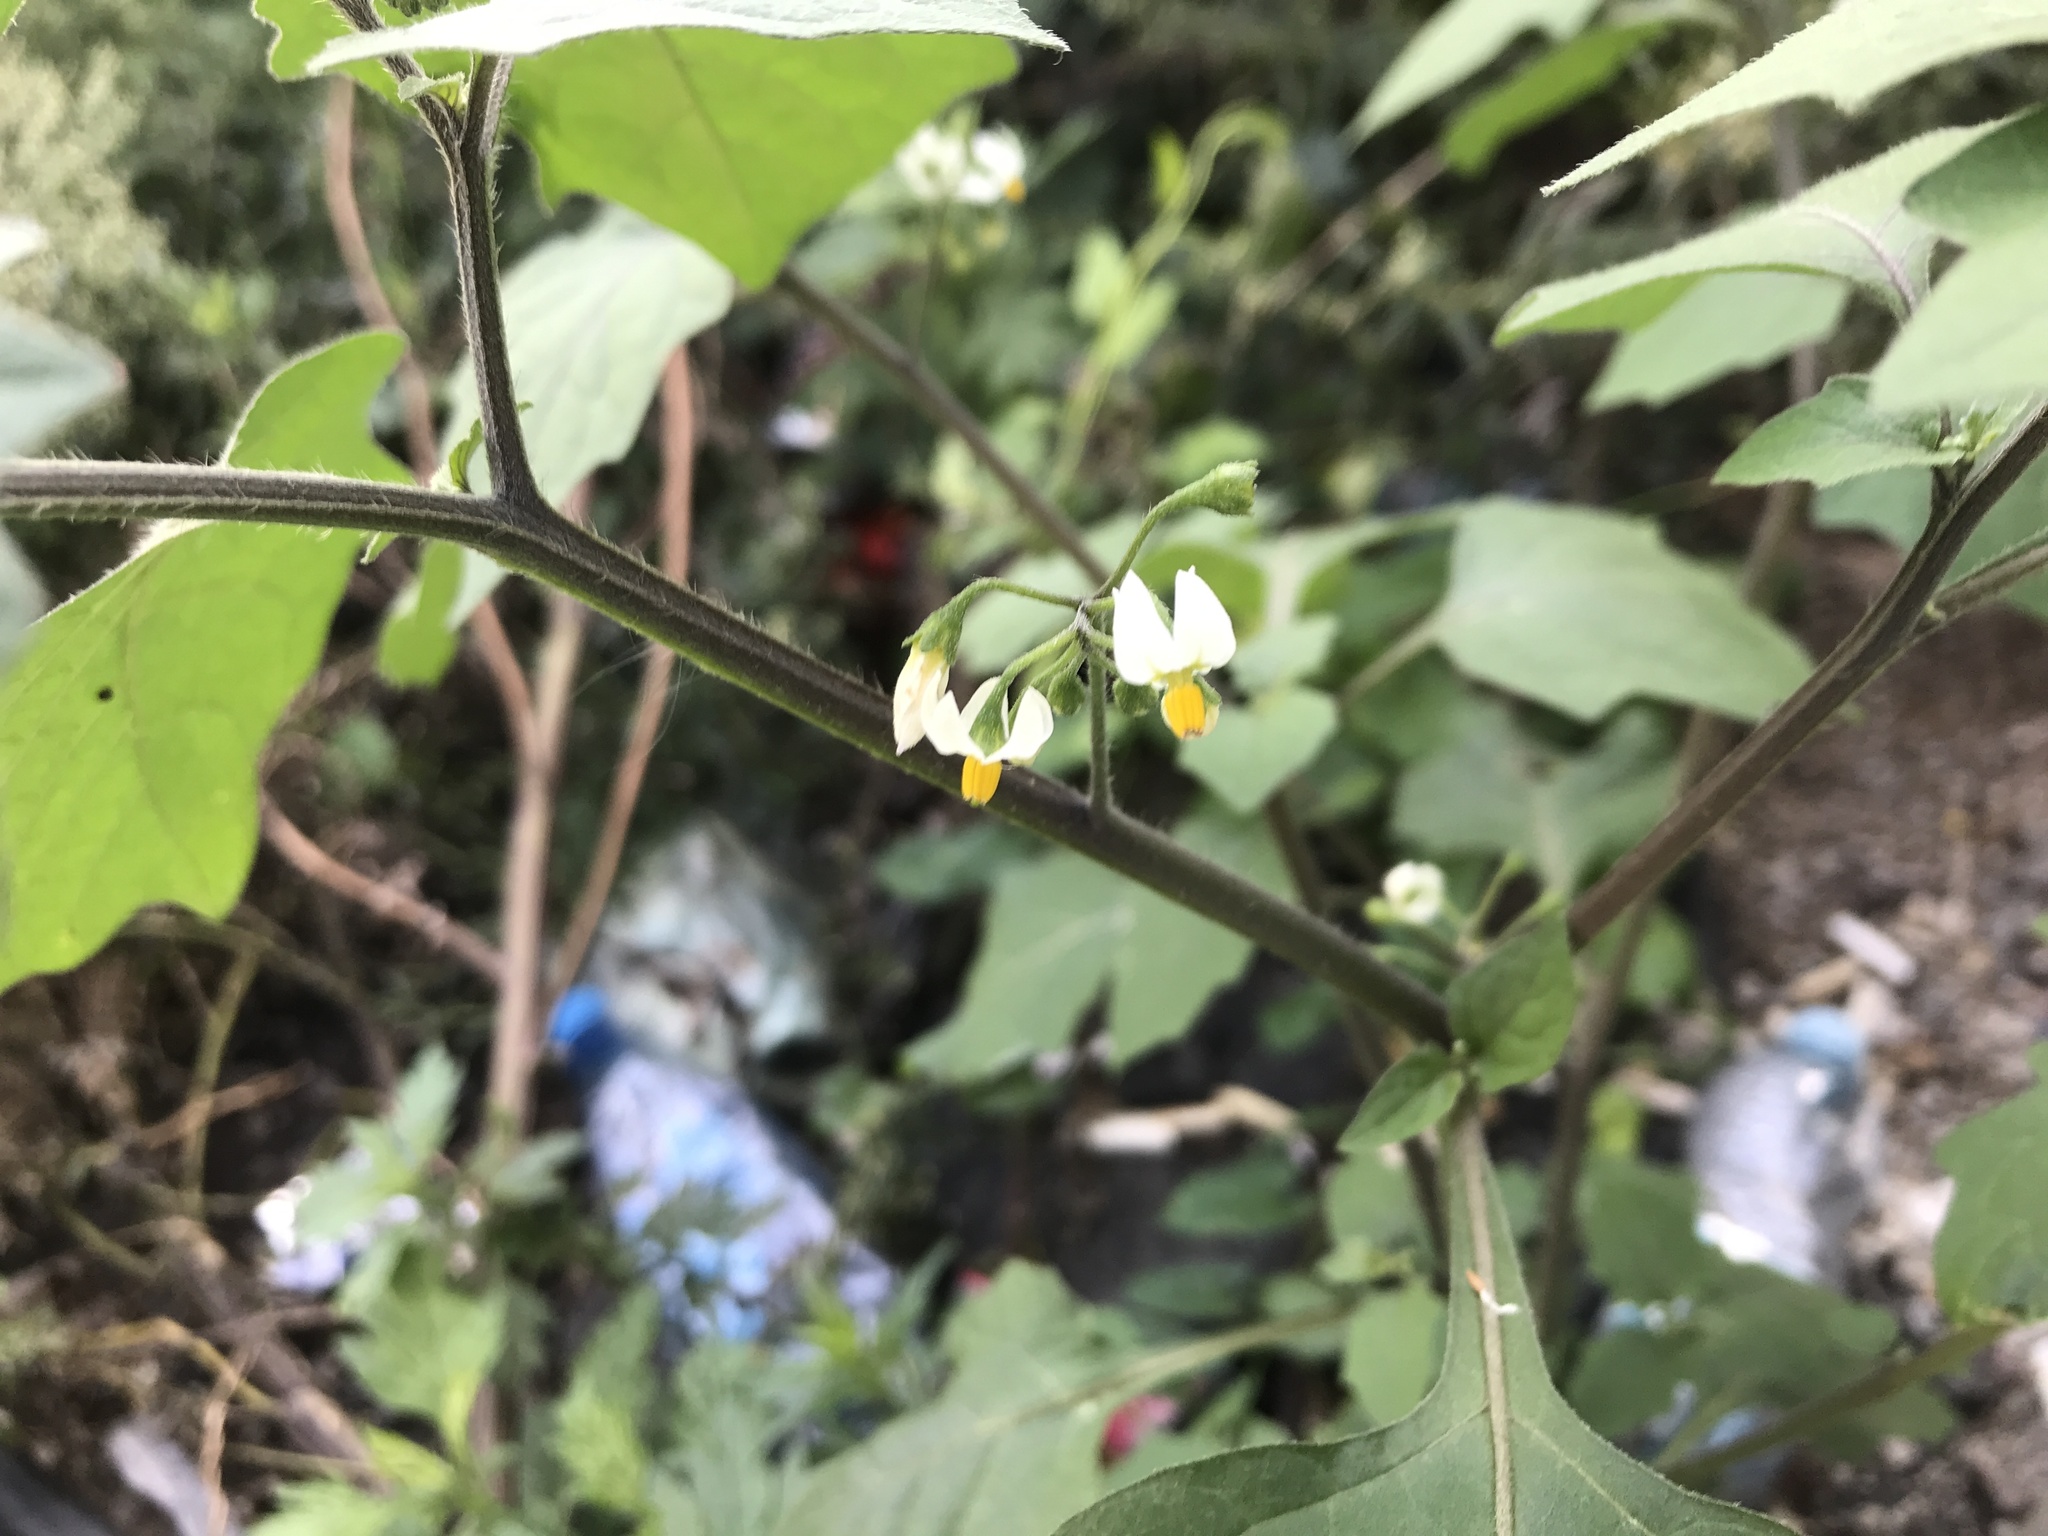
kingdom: Plantae
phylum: Tracheophyta
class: Magnoliopsida
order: Solanales
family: Solanaceae
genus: Solanum
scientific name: Solanum nigrum
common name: Black nightshade
